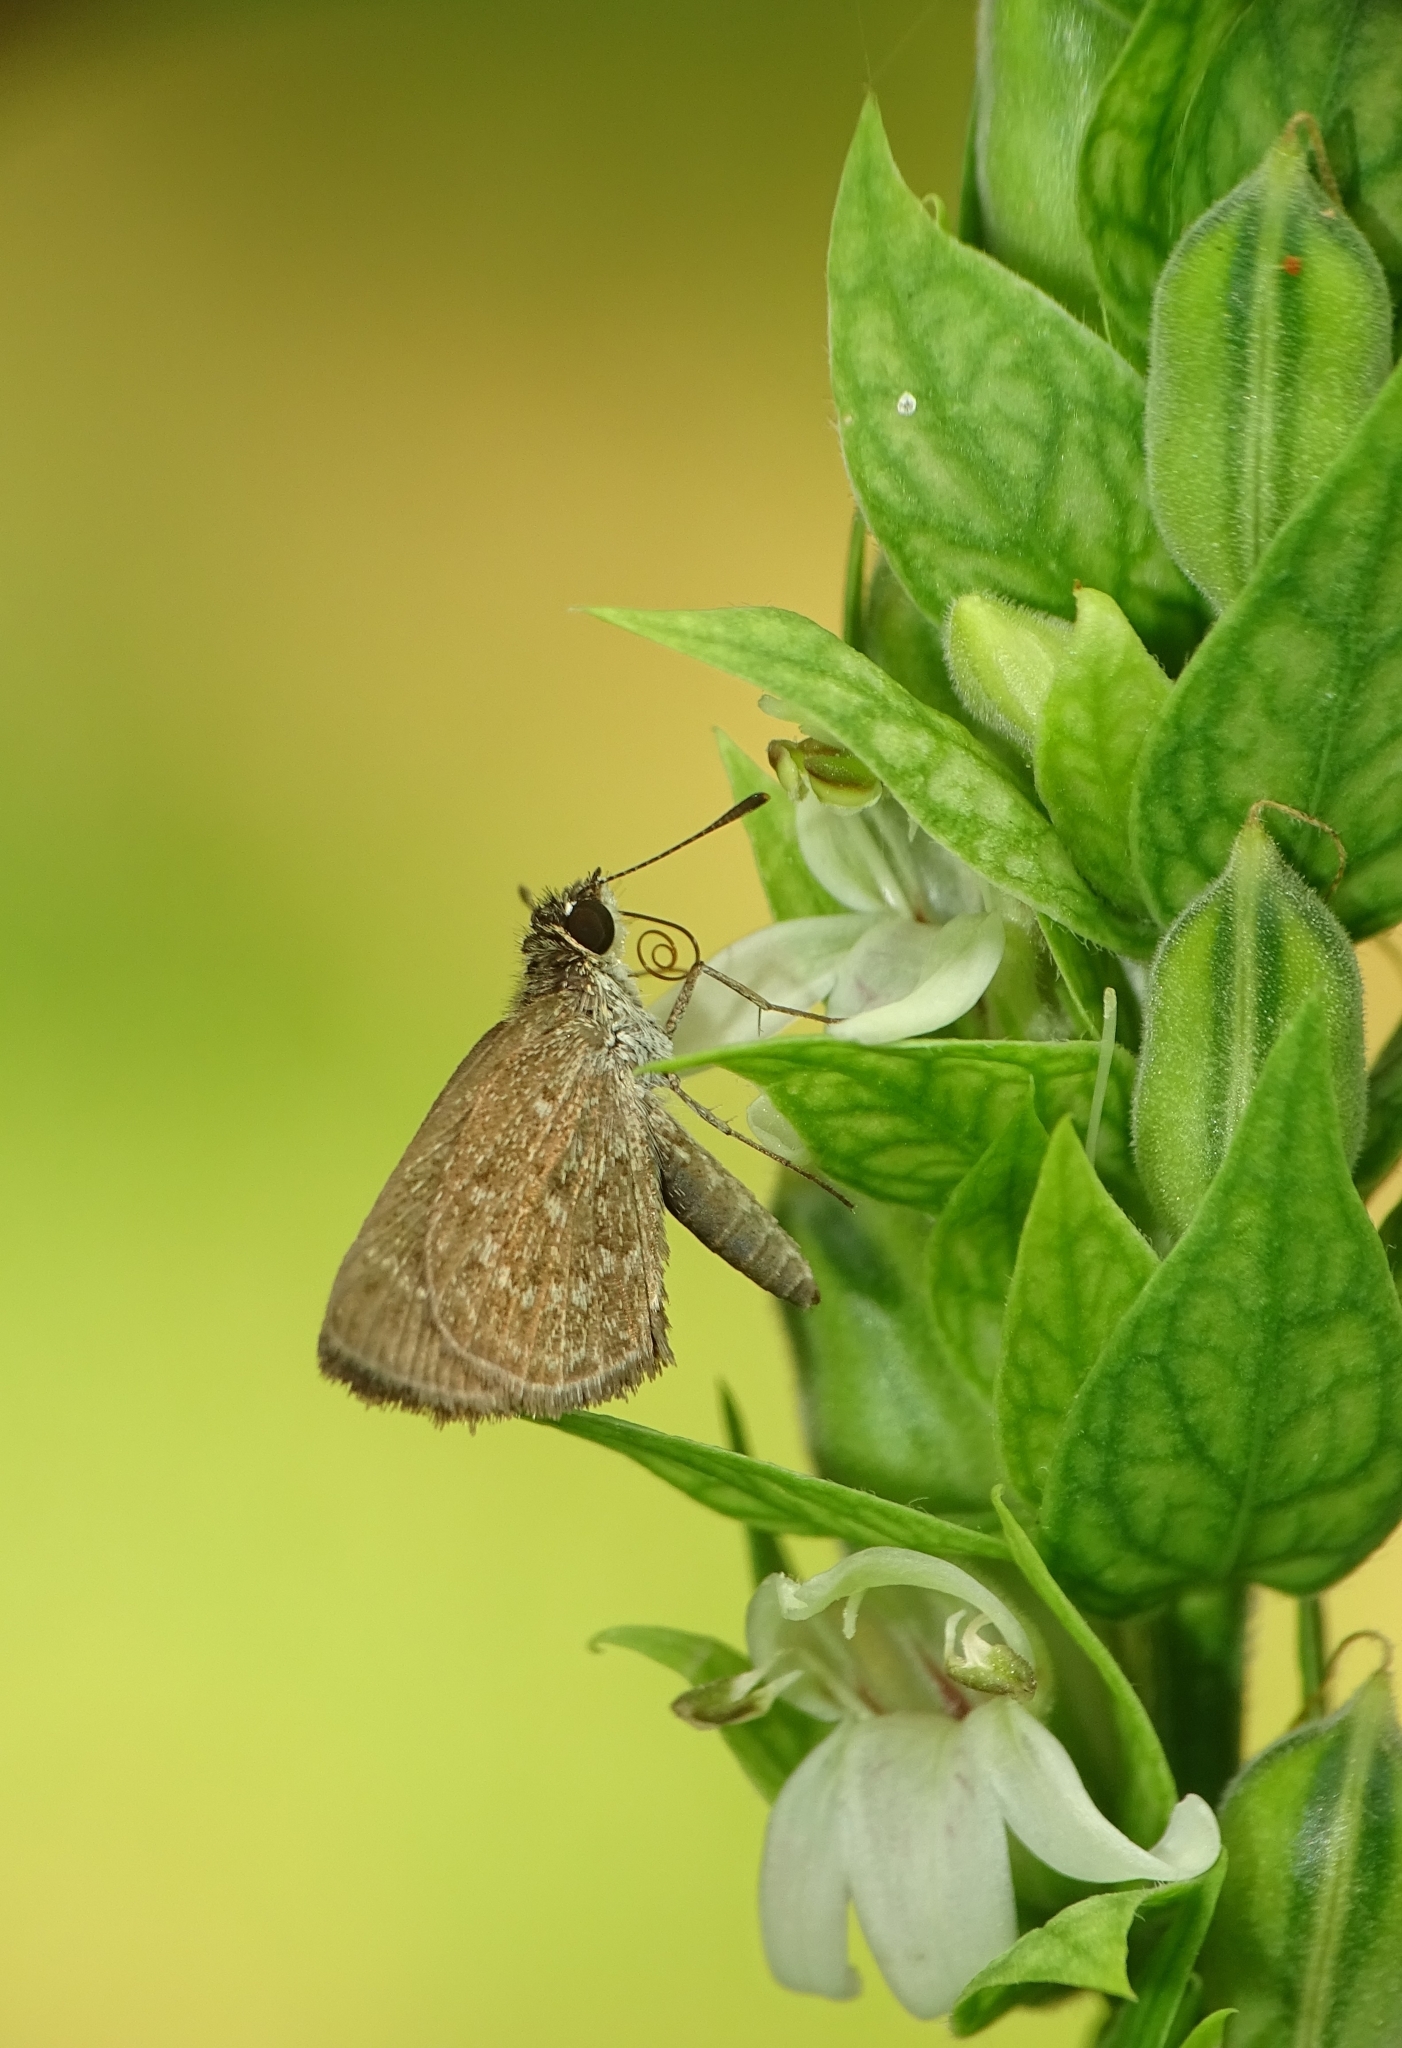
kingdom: Animalia
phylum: Arthropoda
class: Insecta
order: Lepidoptera
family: Hesperiidae
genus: Aeromachus
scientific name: Aeromachus pygmaeus
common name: Pygmy scrub hopper
